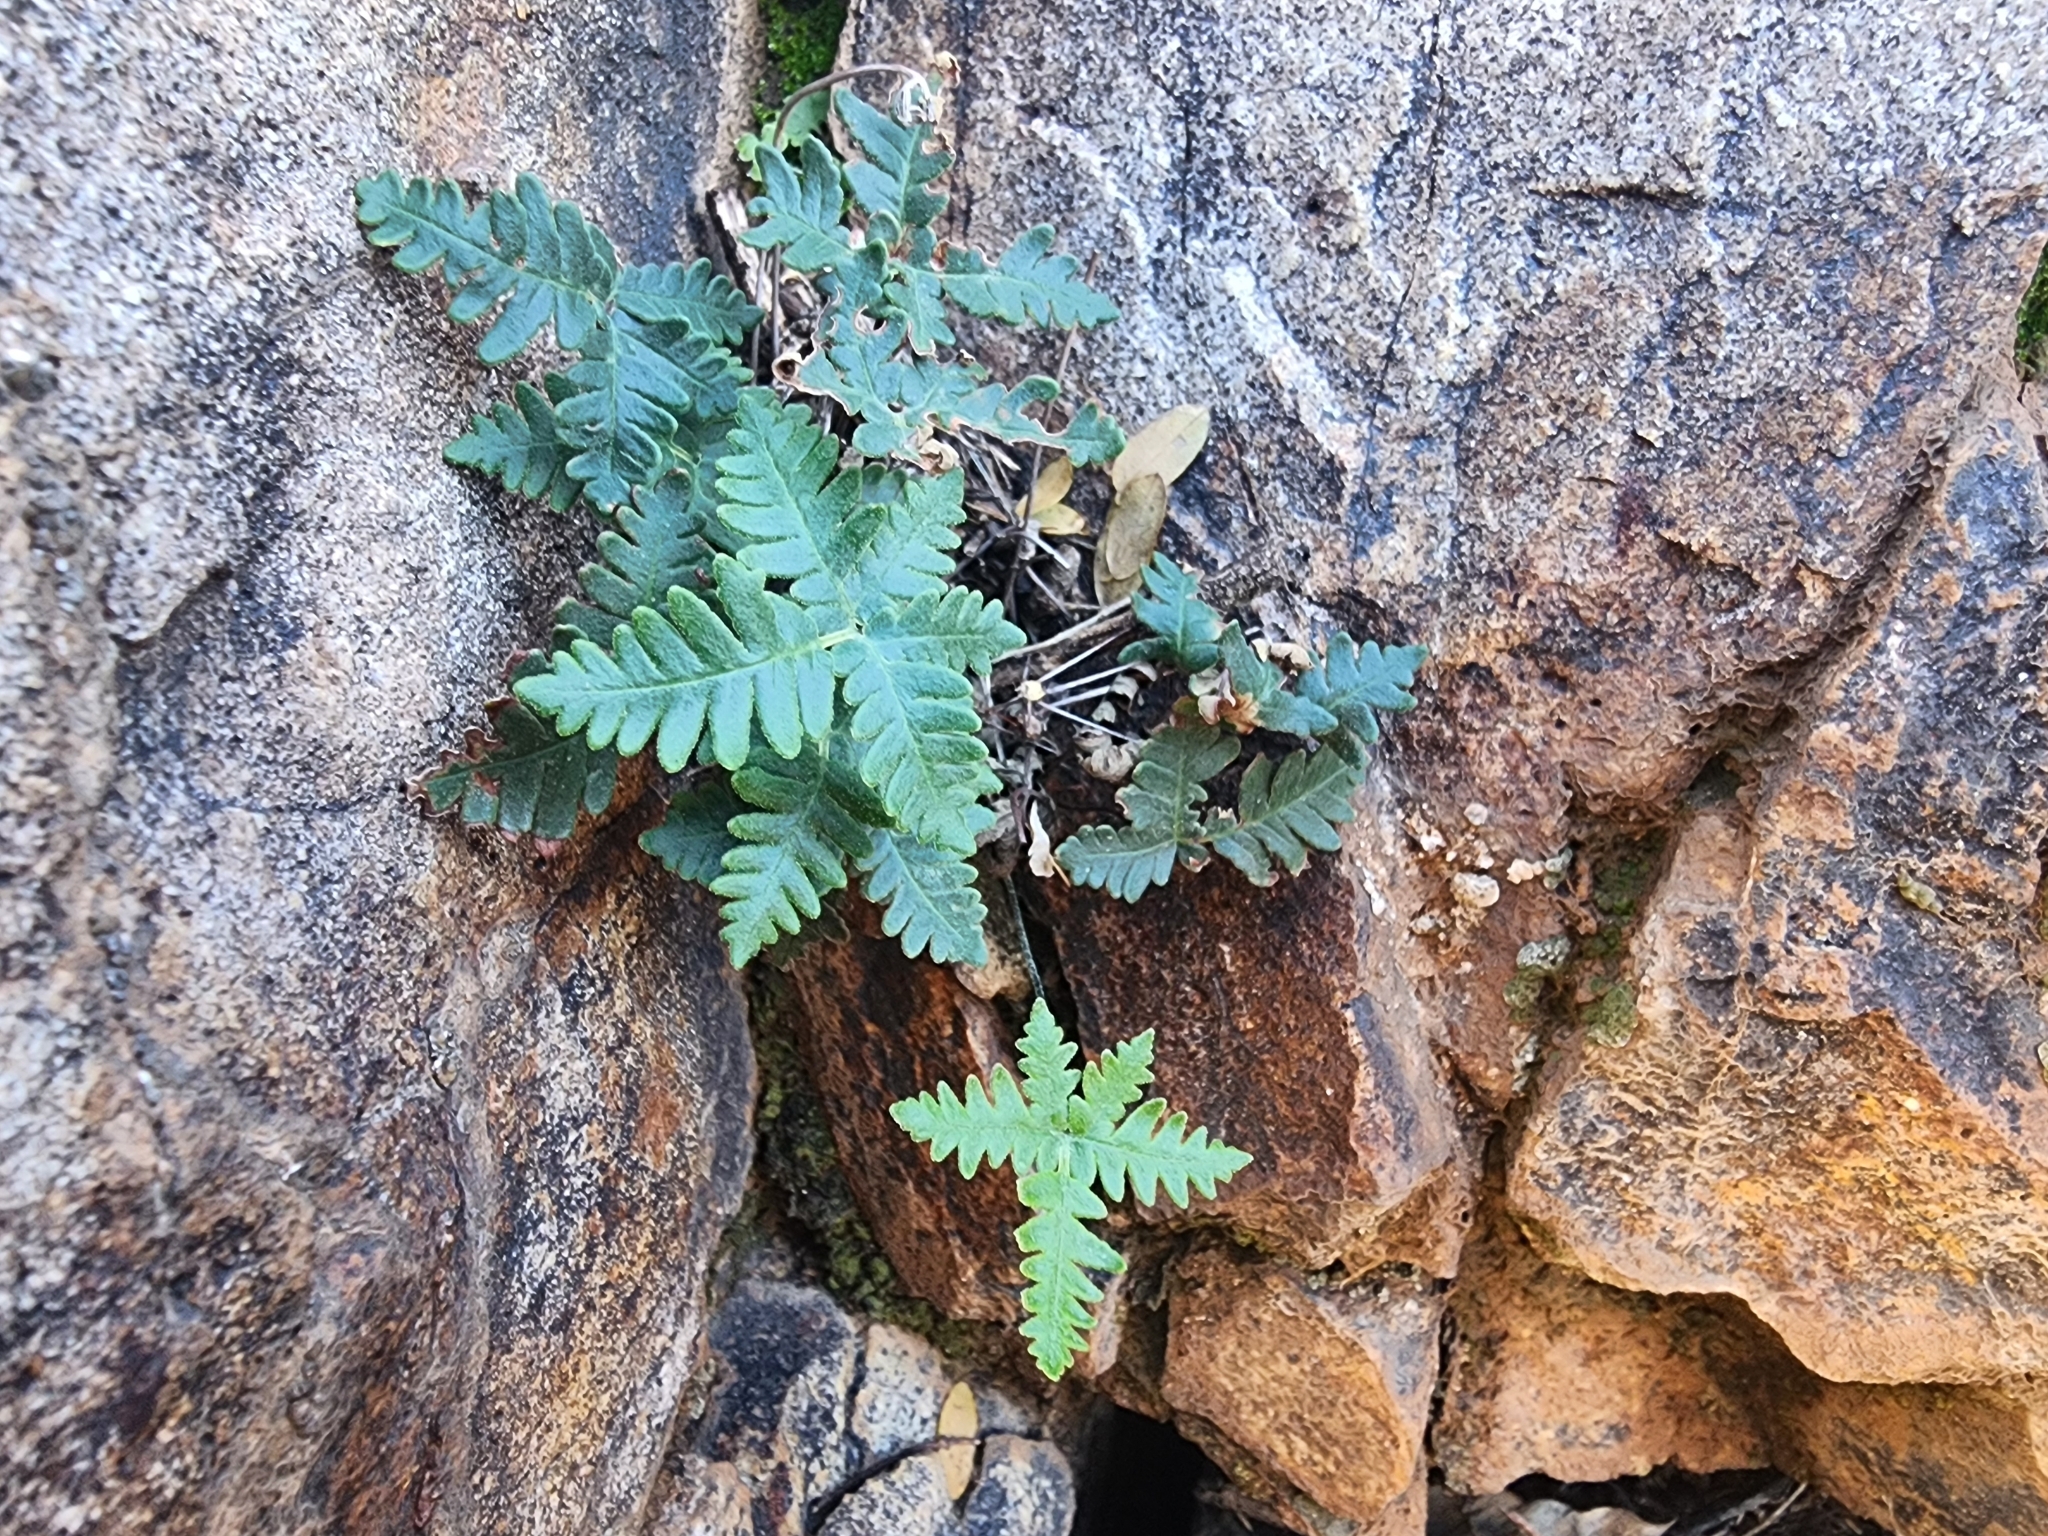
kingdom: Plantae
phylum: Tracheophyta
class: Polypodiopsida
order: Polypodiales
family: Pteridaceae
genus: Notholaena
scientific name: Notholaena standleyi
